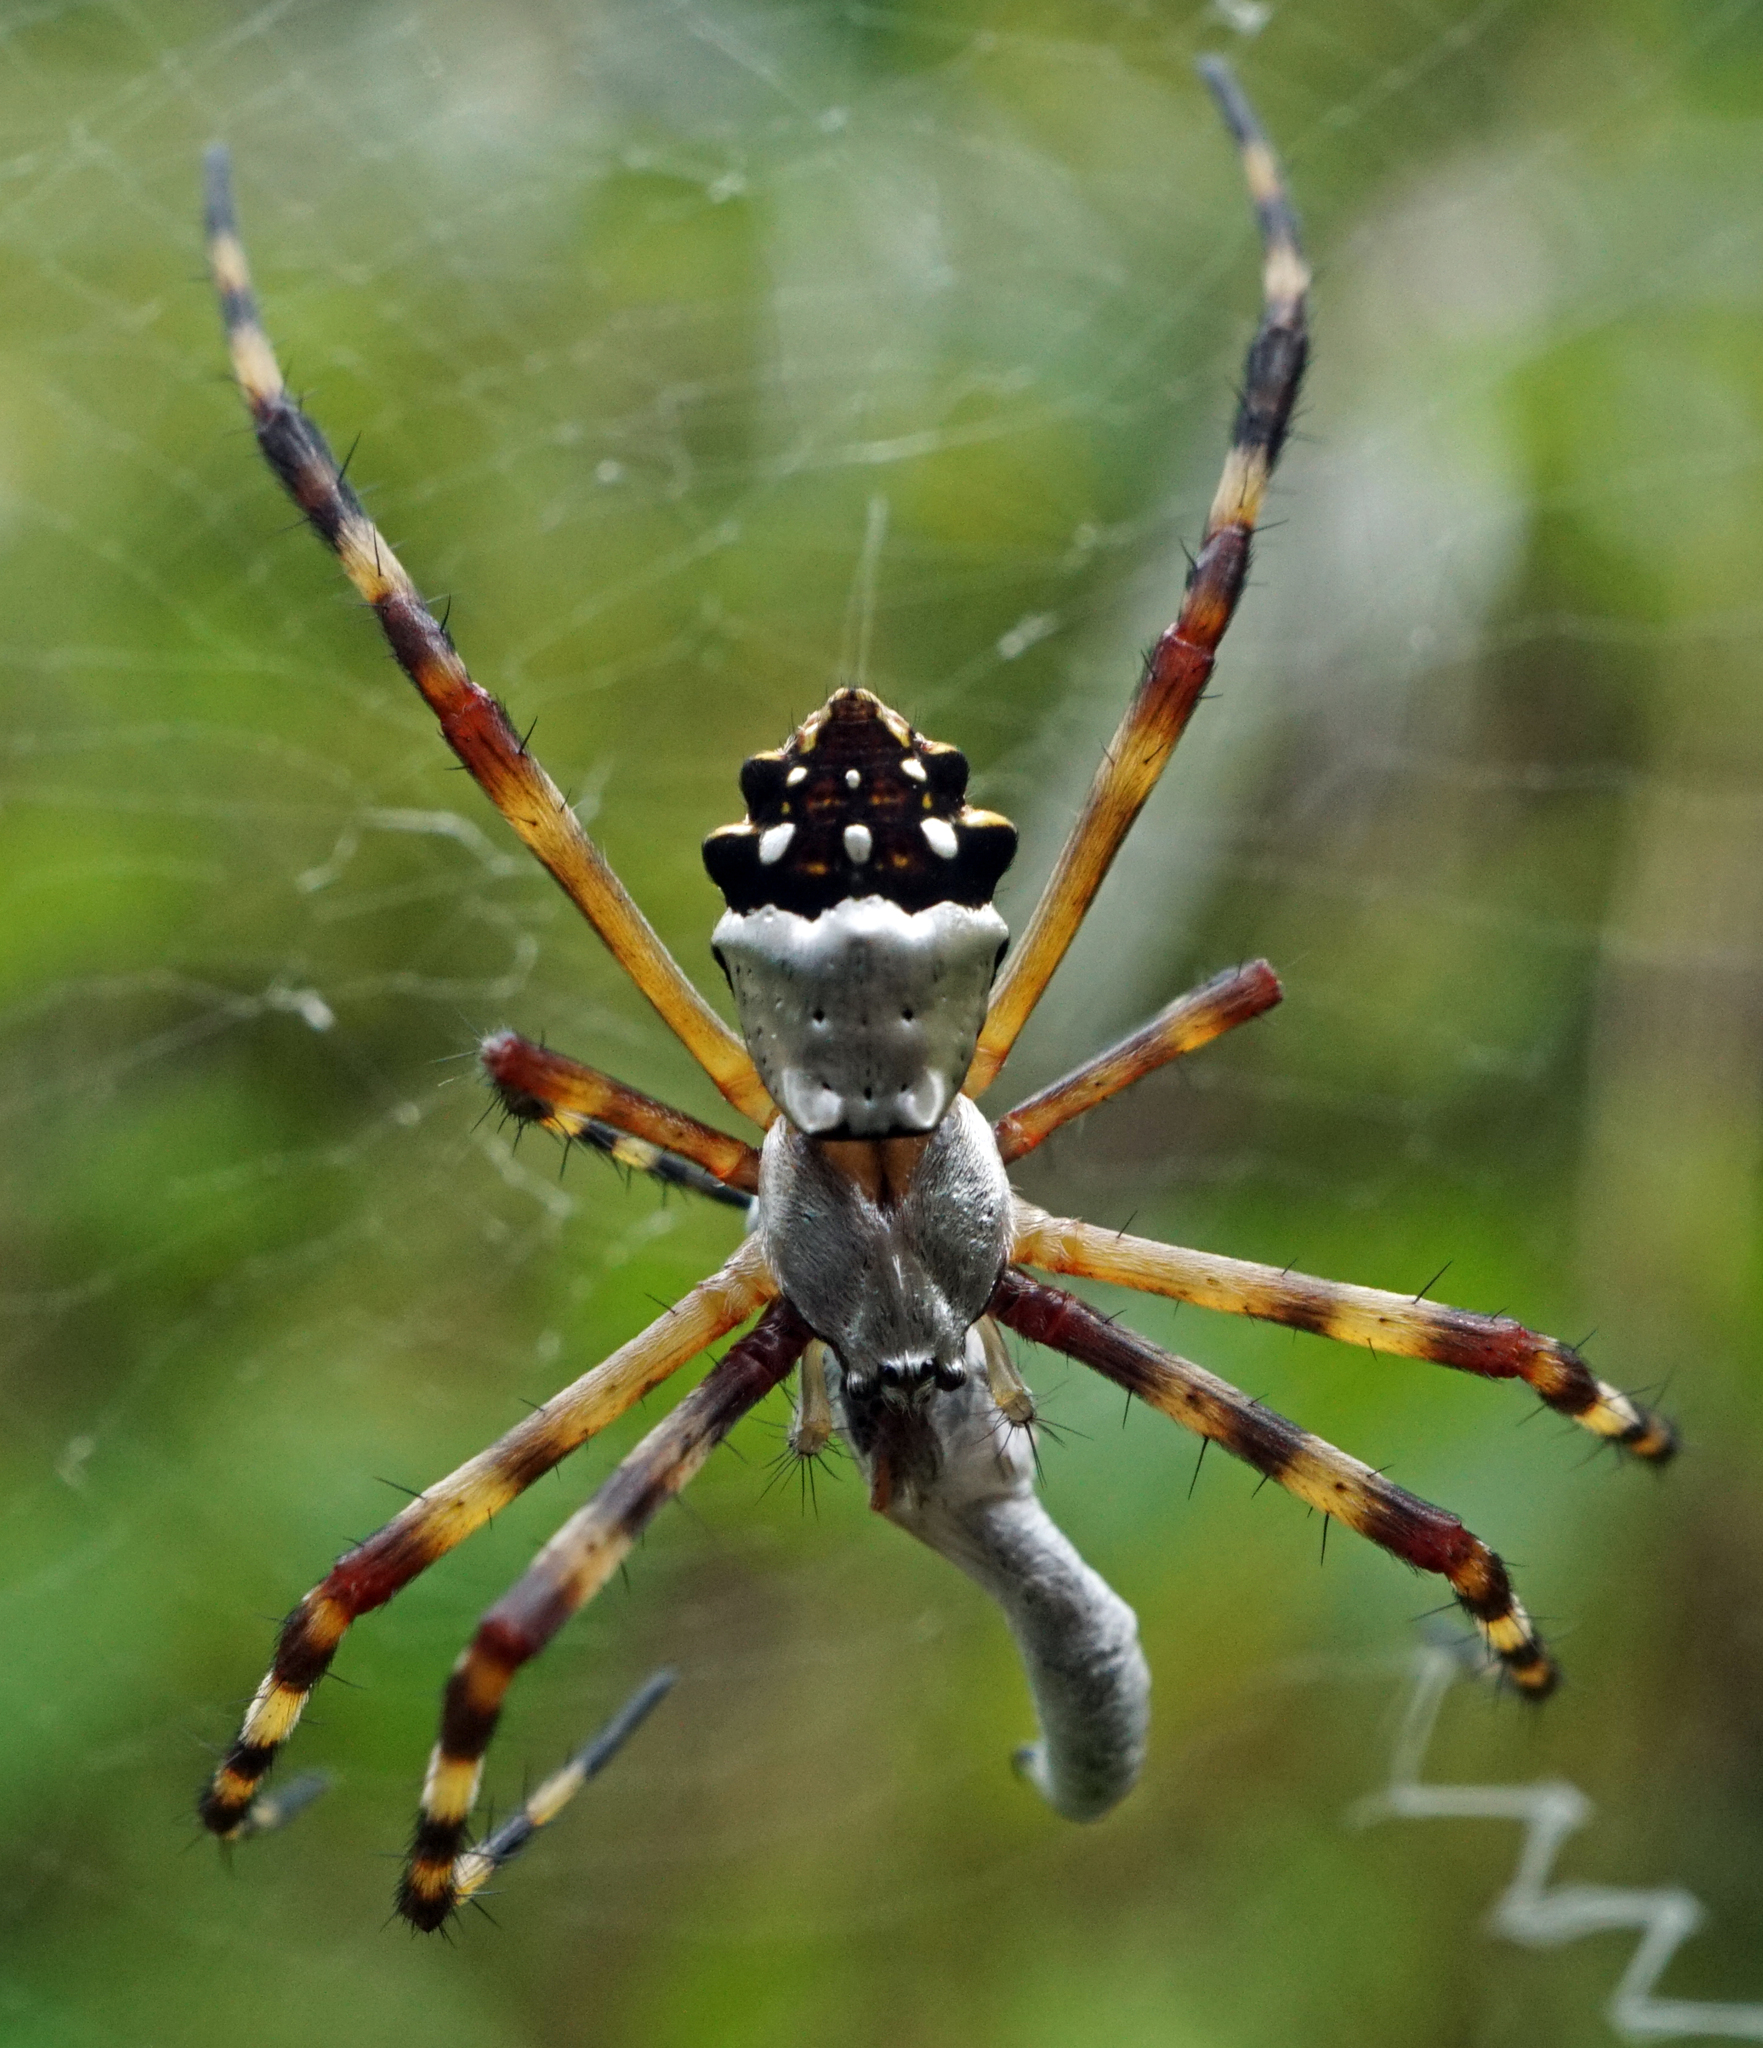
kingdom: Animalia
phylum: Arthropoda
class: Arachnida
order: Araneae
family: Araneidae
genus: Argiope
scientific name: Argiope argentata
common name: Orb weavers
